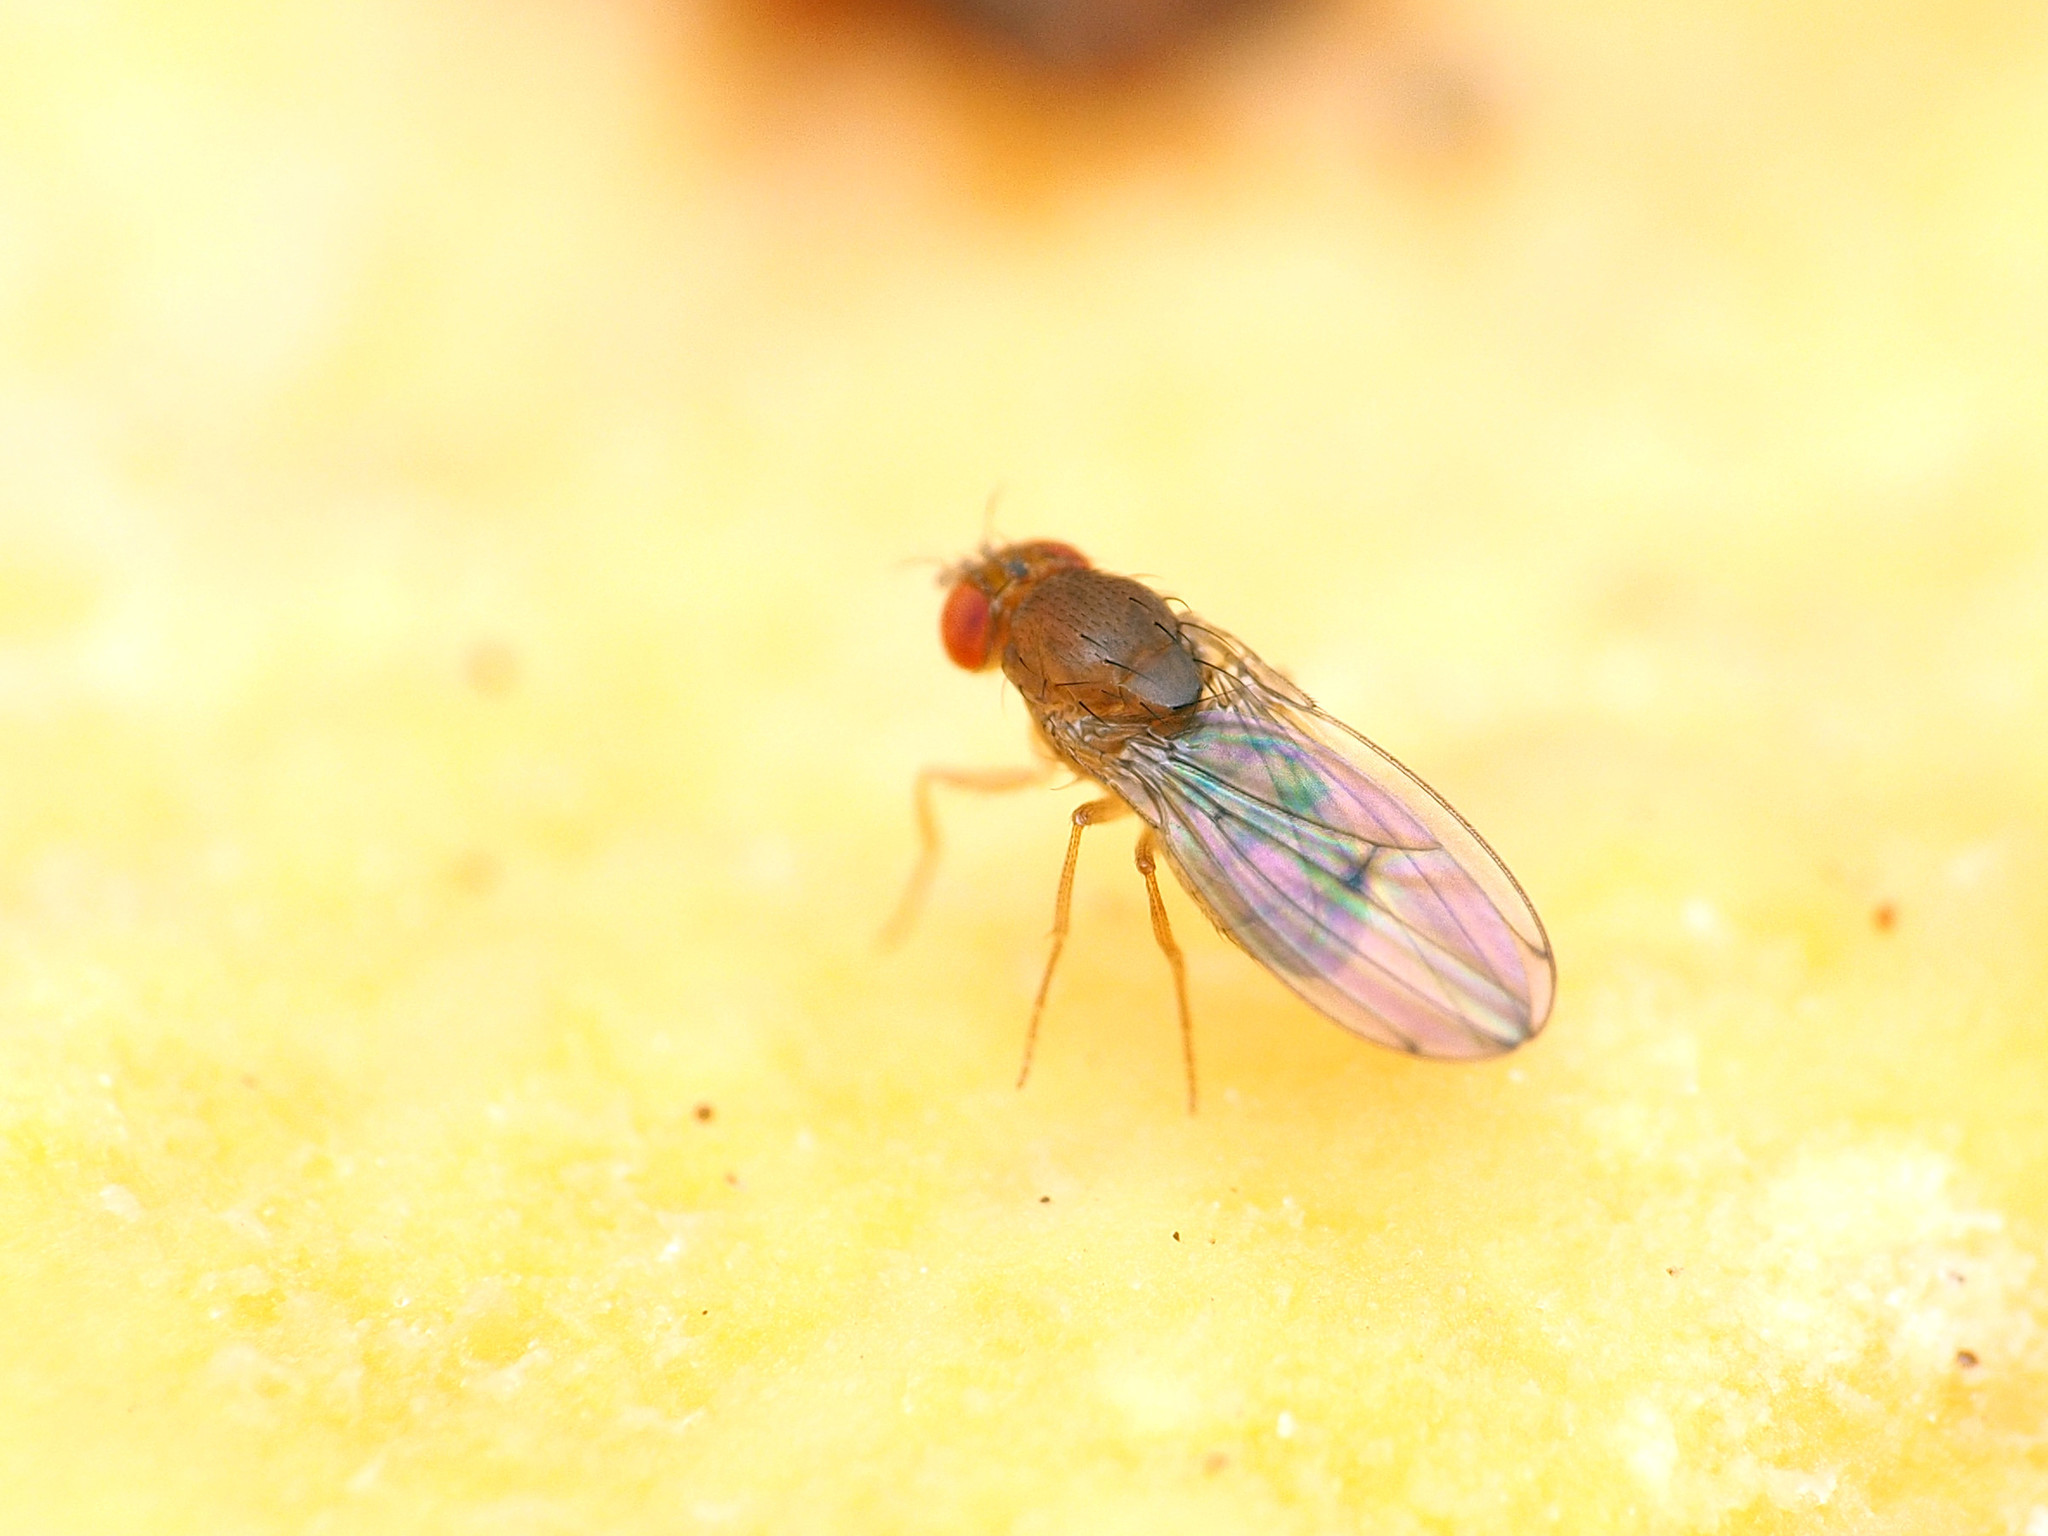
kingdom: Animalia
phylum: Arthropoda
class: Insecta
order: Diptera
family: Drosophilidae
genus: Drosophila
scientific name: Drosophila tripunctata
